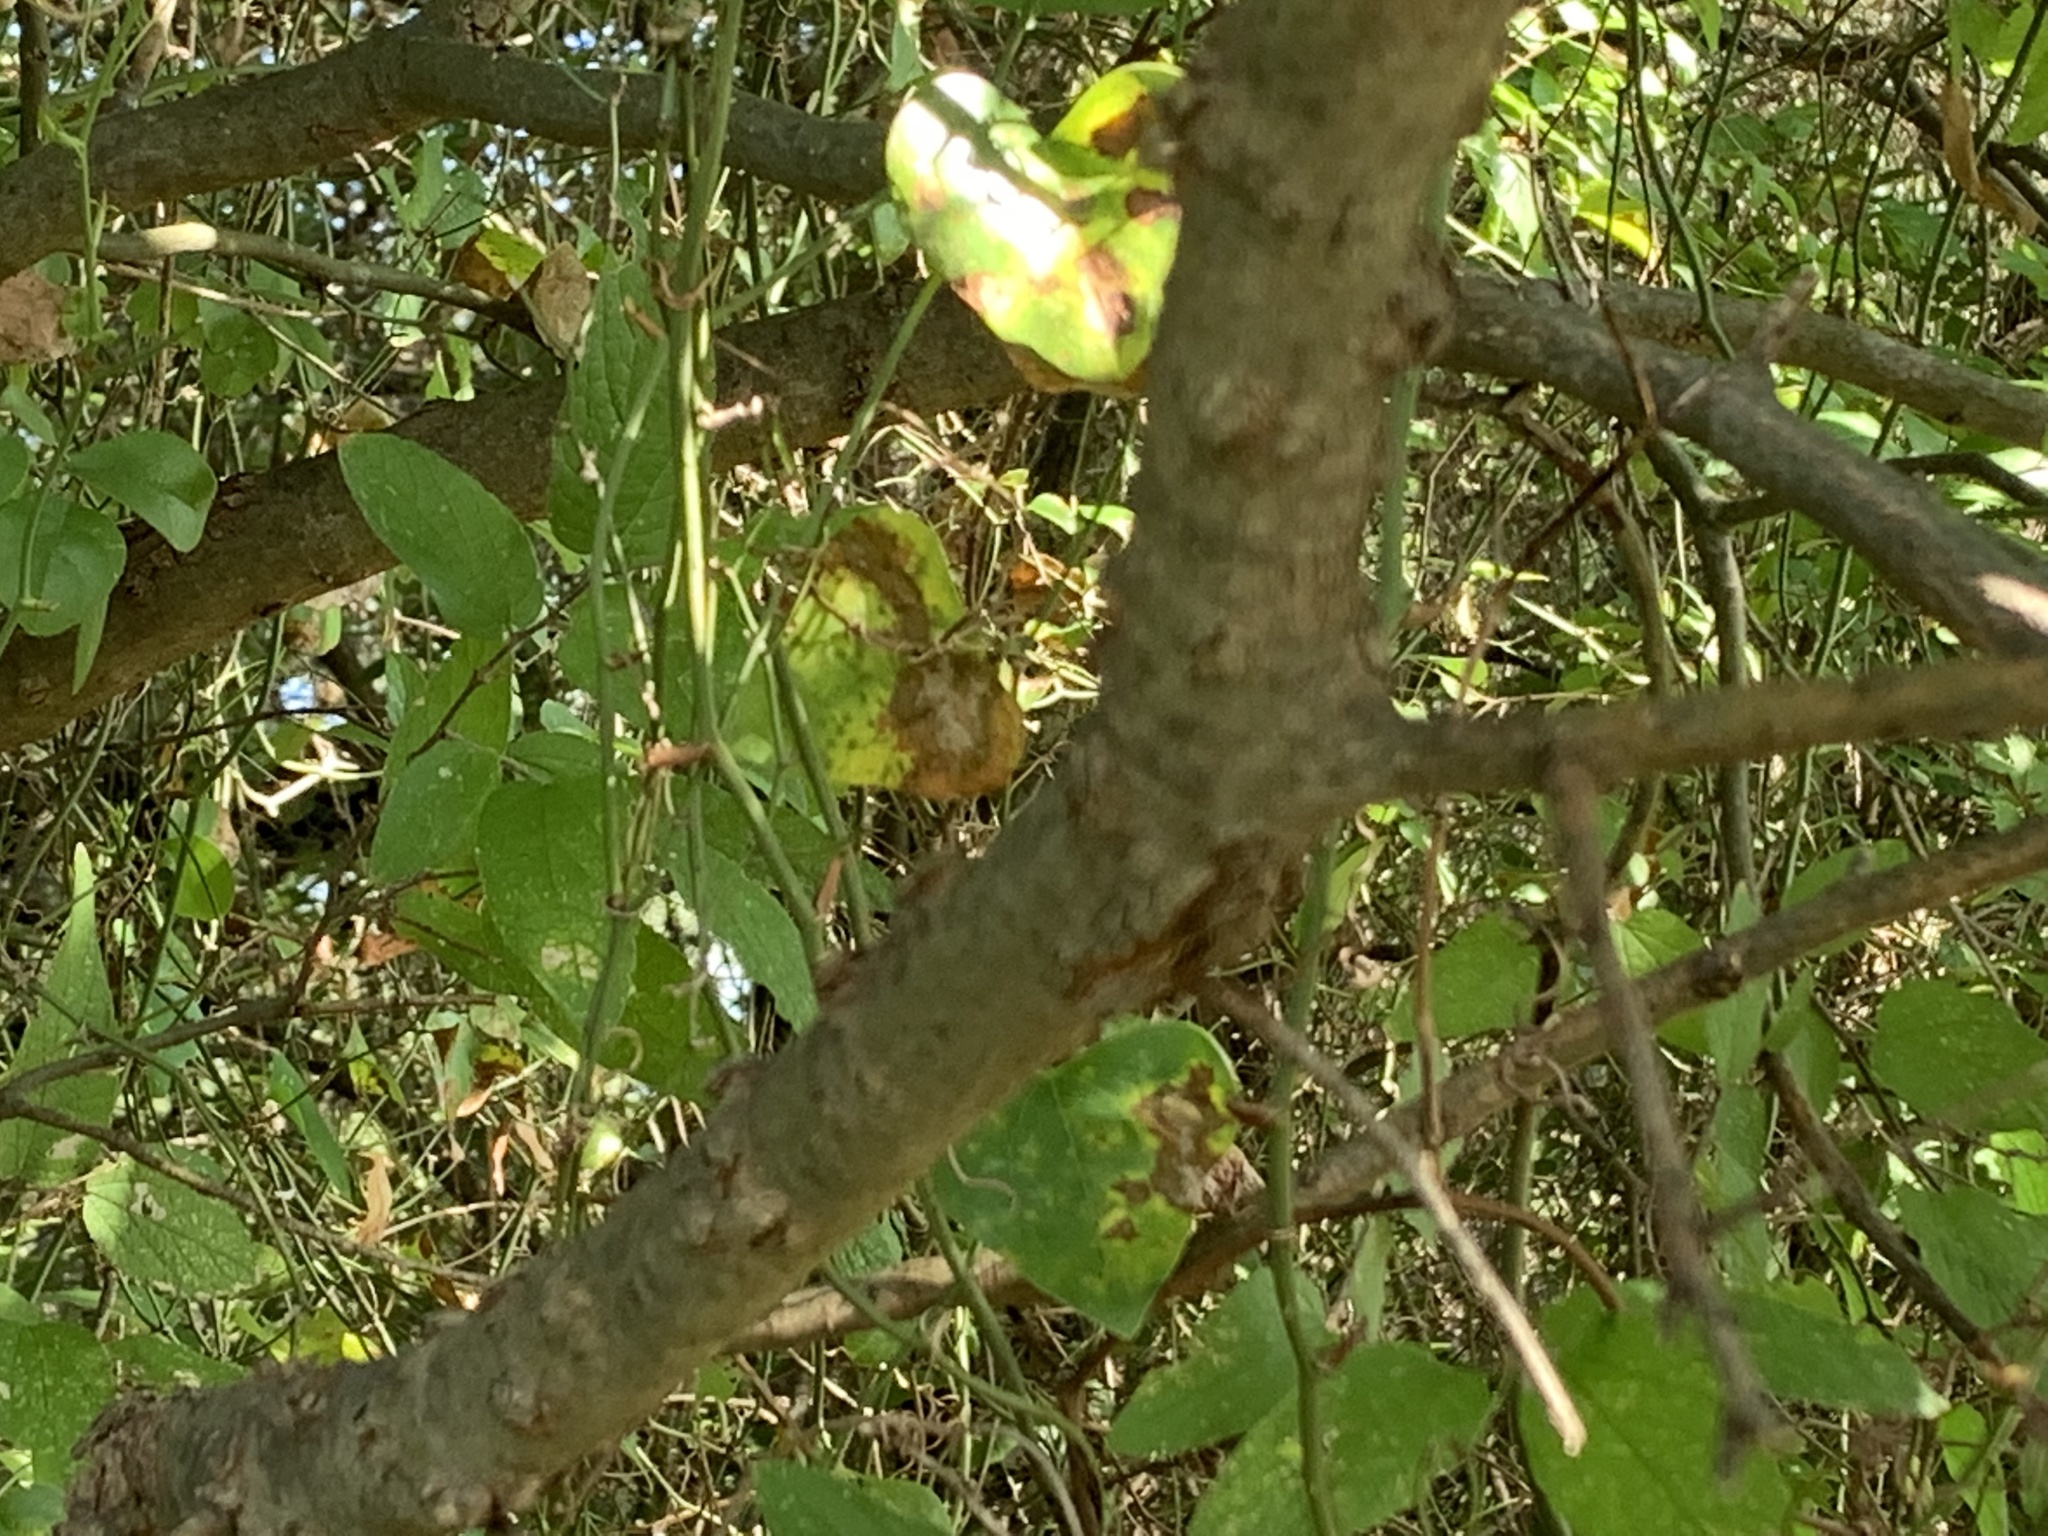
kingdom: Plantae
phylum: Tracheophyta
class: Magnoliopsida
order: Rosales
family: Cannabaceae
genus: Celtis
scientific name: Celtis reticulata
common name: Netleaf hackberry
